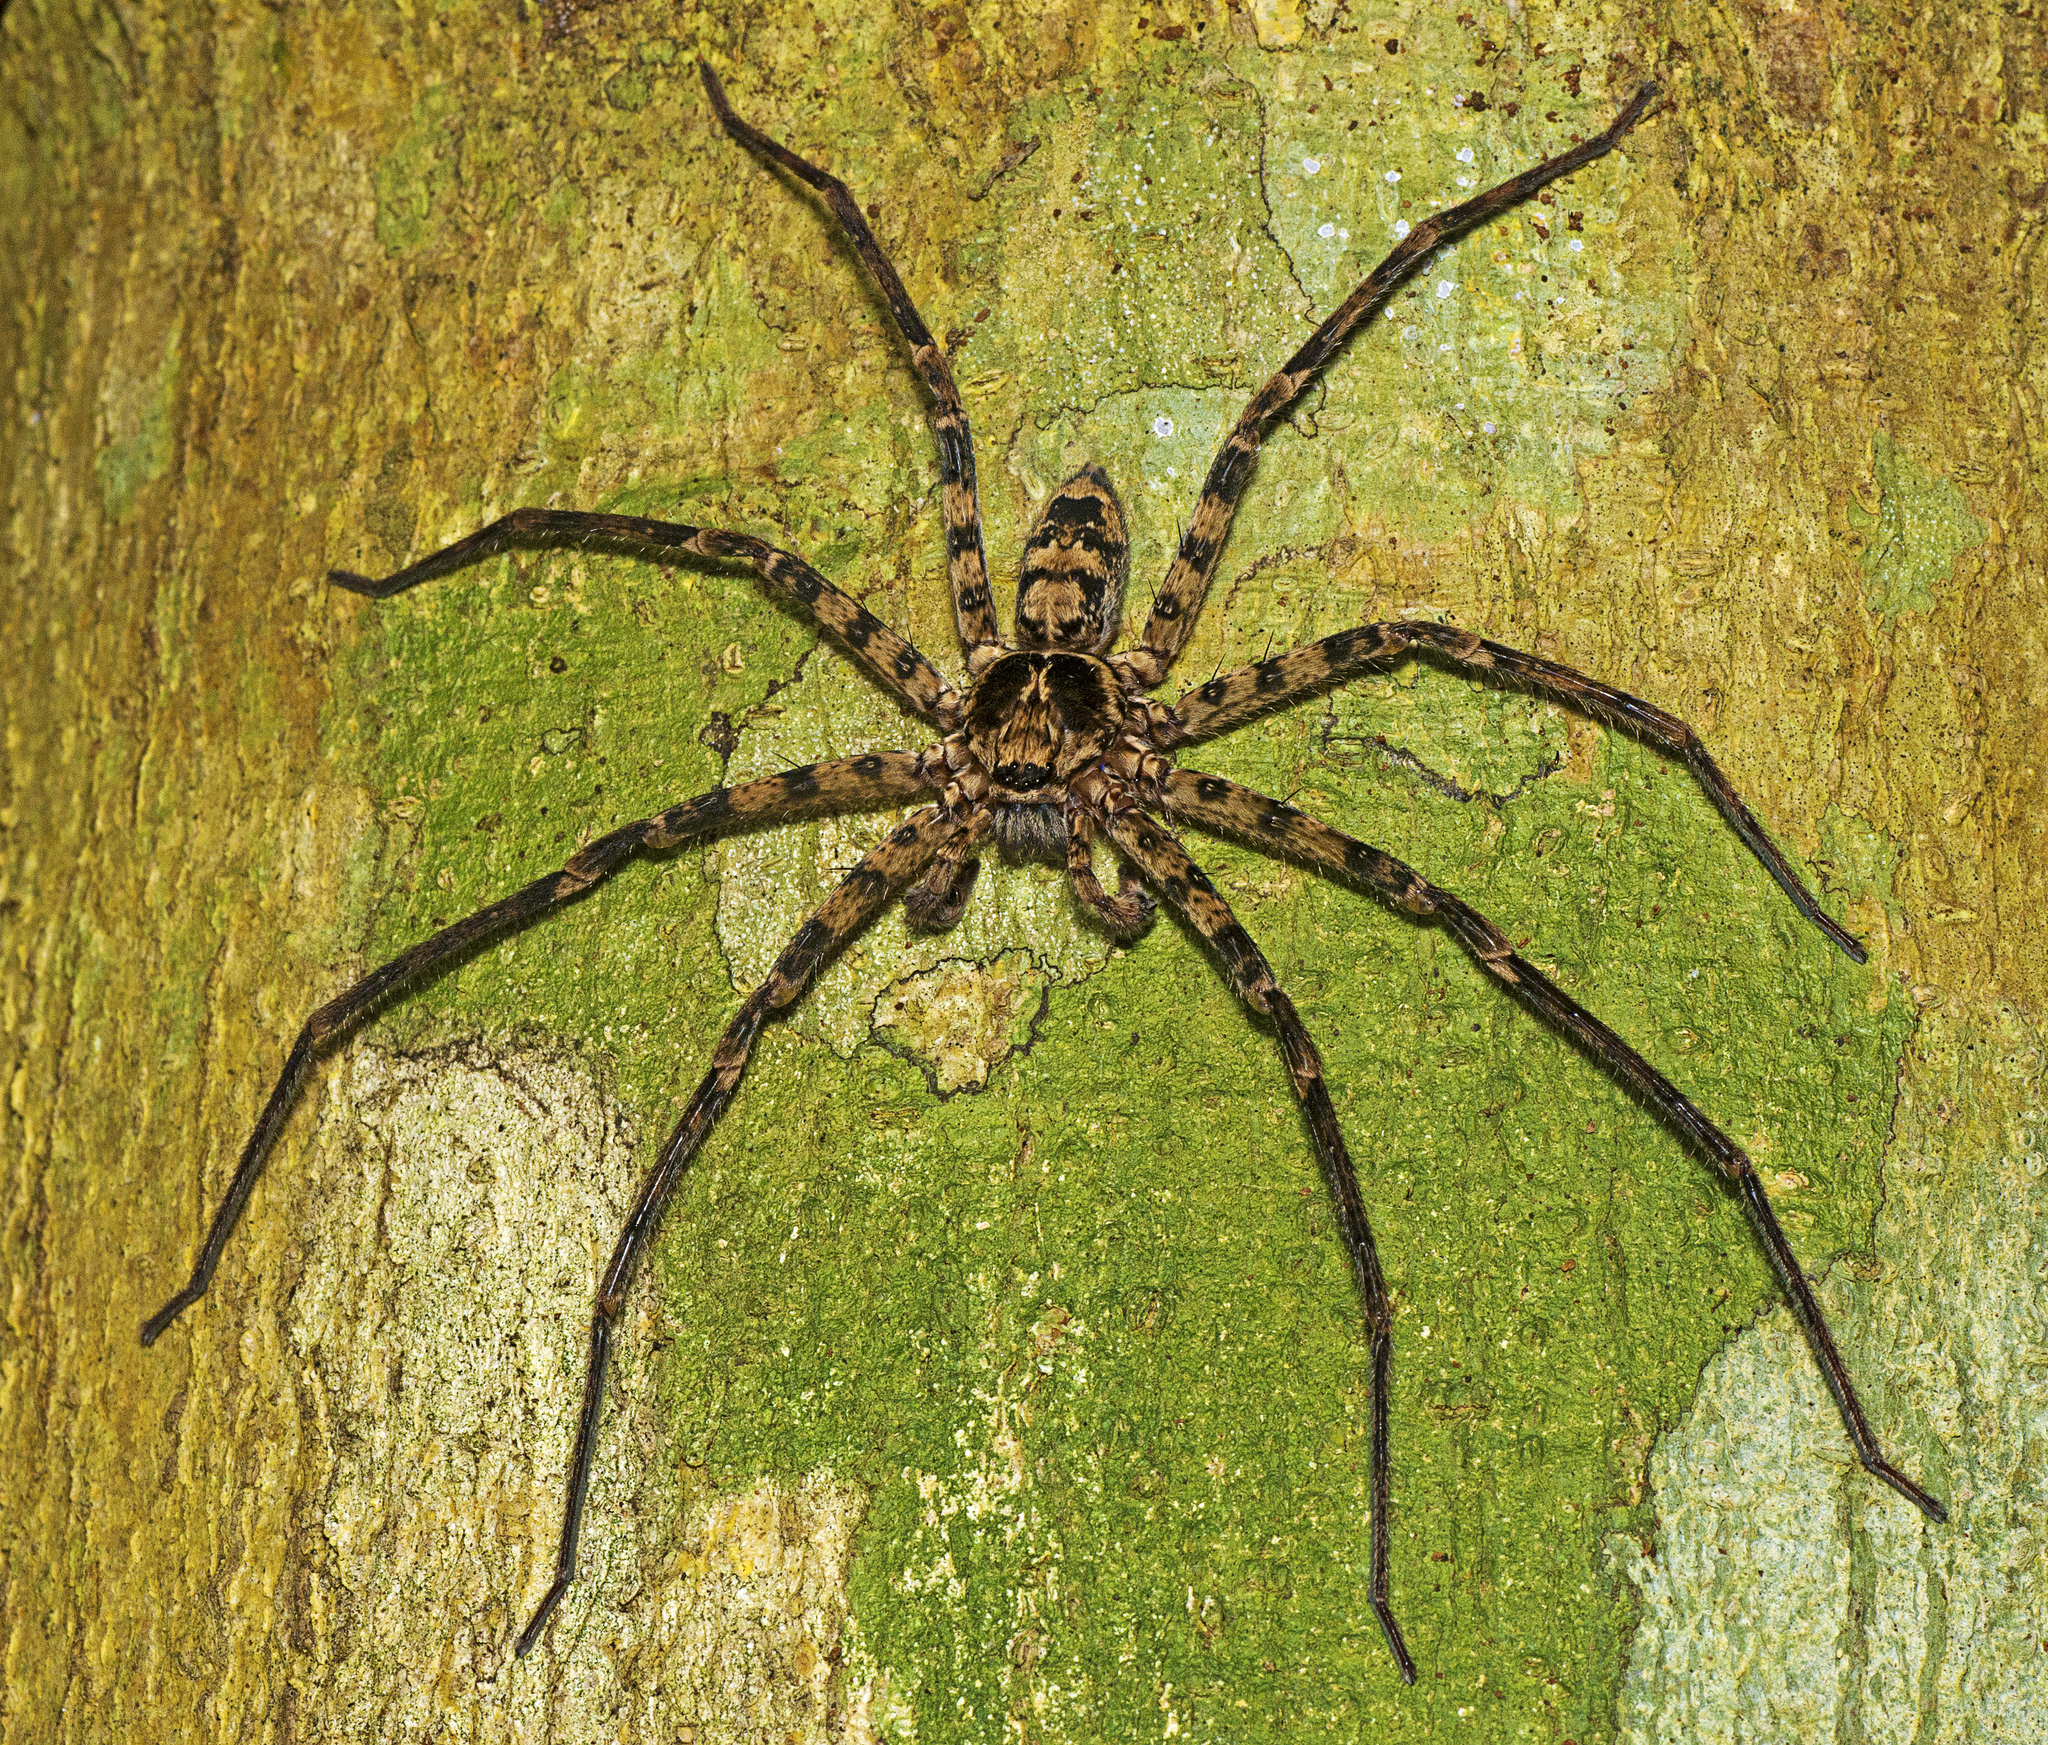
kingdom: Animalia
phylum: Arthropoda
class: Arachnida
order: Araneae
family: Sparassidae
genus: Heteropoda
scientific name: Heteropoda procera
